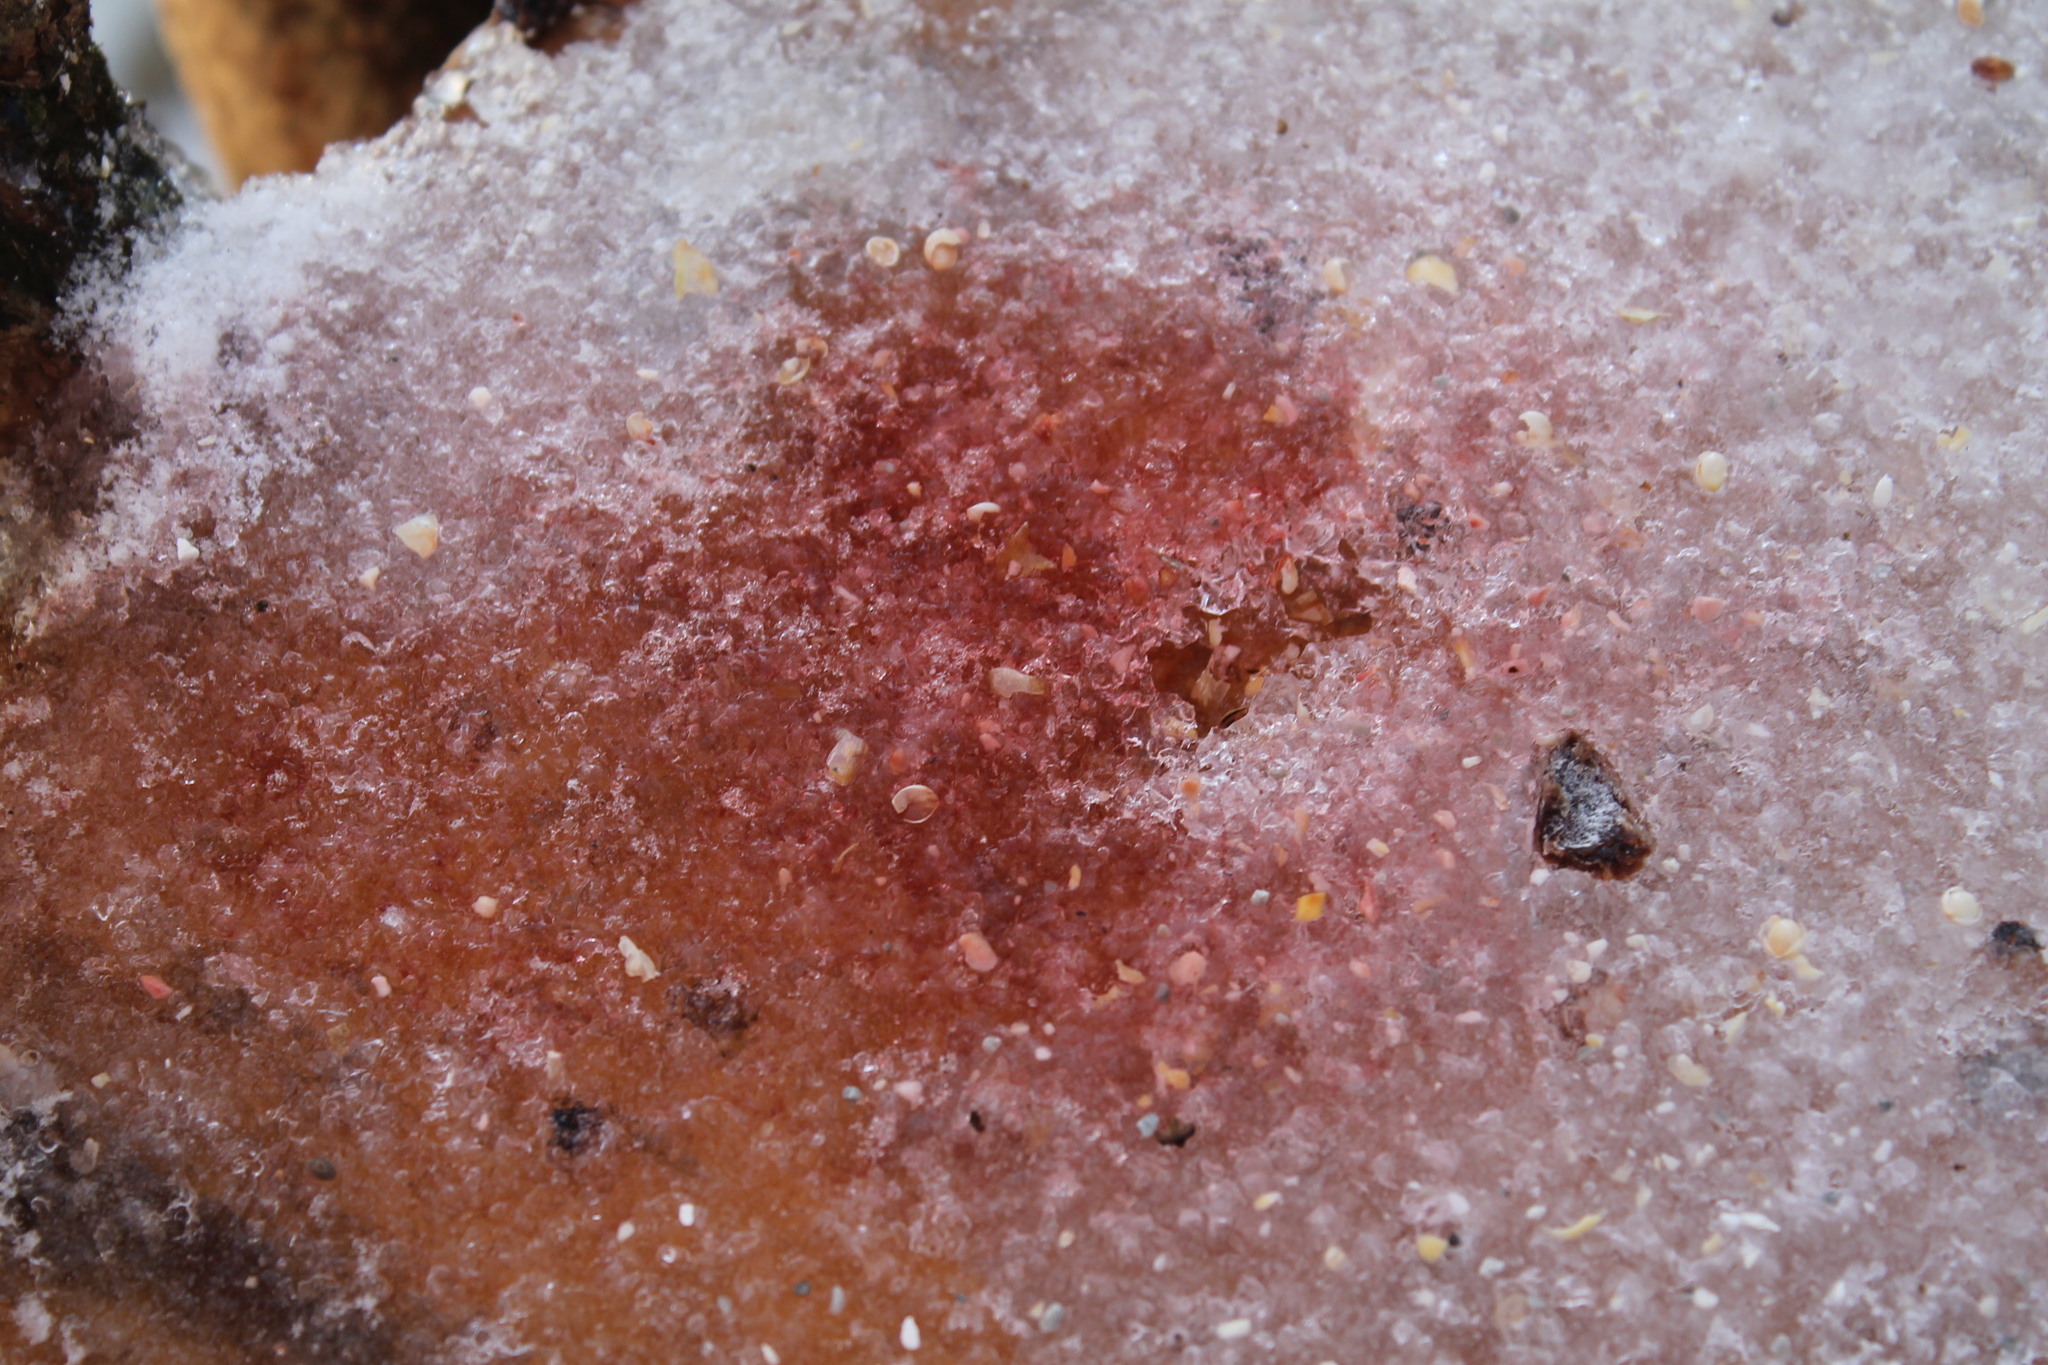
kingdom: Plantae
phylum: Chlorophyta
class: Chlorophyceae
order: Volvocales
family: Chlamydomonadaceae
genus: Chlamydomonas
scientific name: Chlamydomonas nivalis
